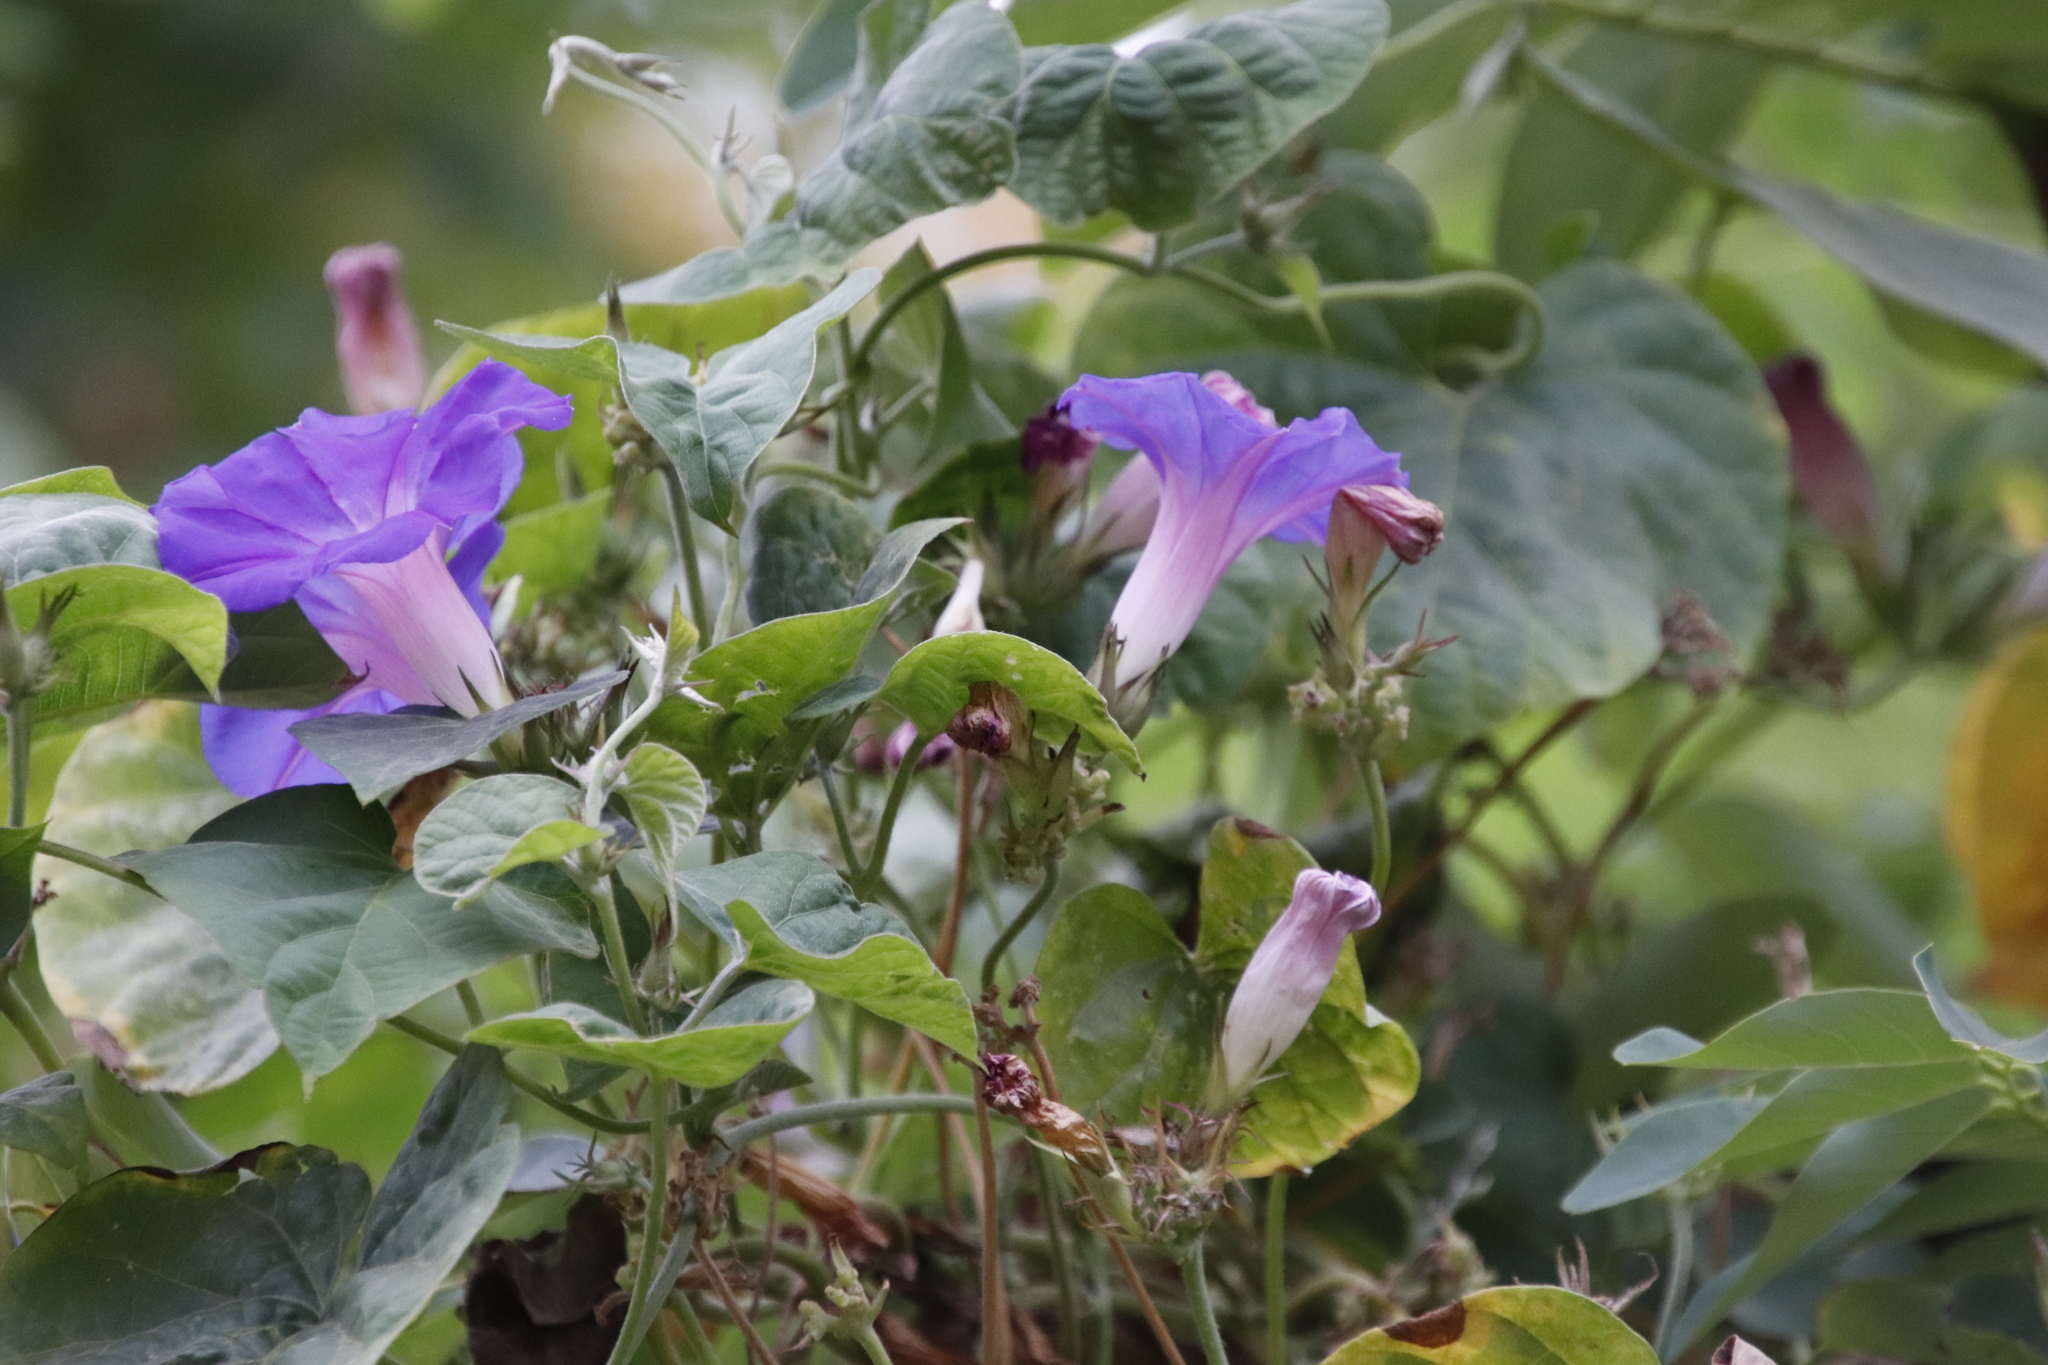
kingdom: Plantae
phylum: Tracheophyta
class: Magnoliopsida
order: Solanales
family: Convolvulaceae
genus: Ipomoea
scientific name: Ipomoea indica
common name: Blue dawnflower
